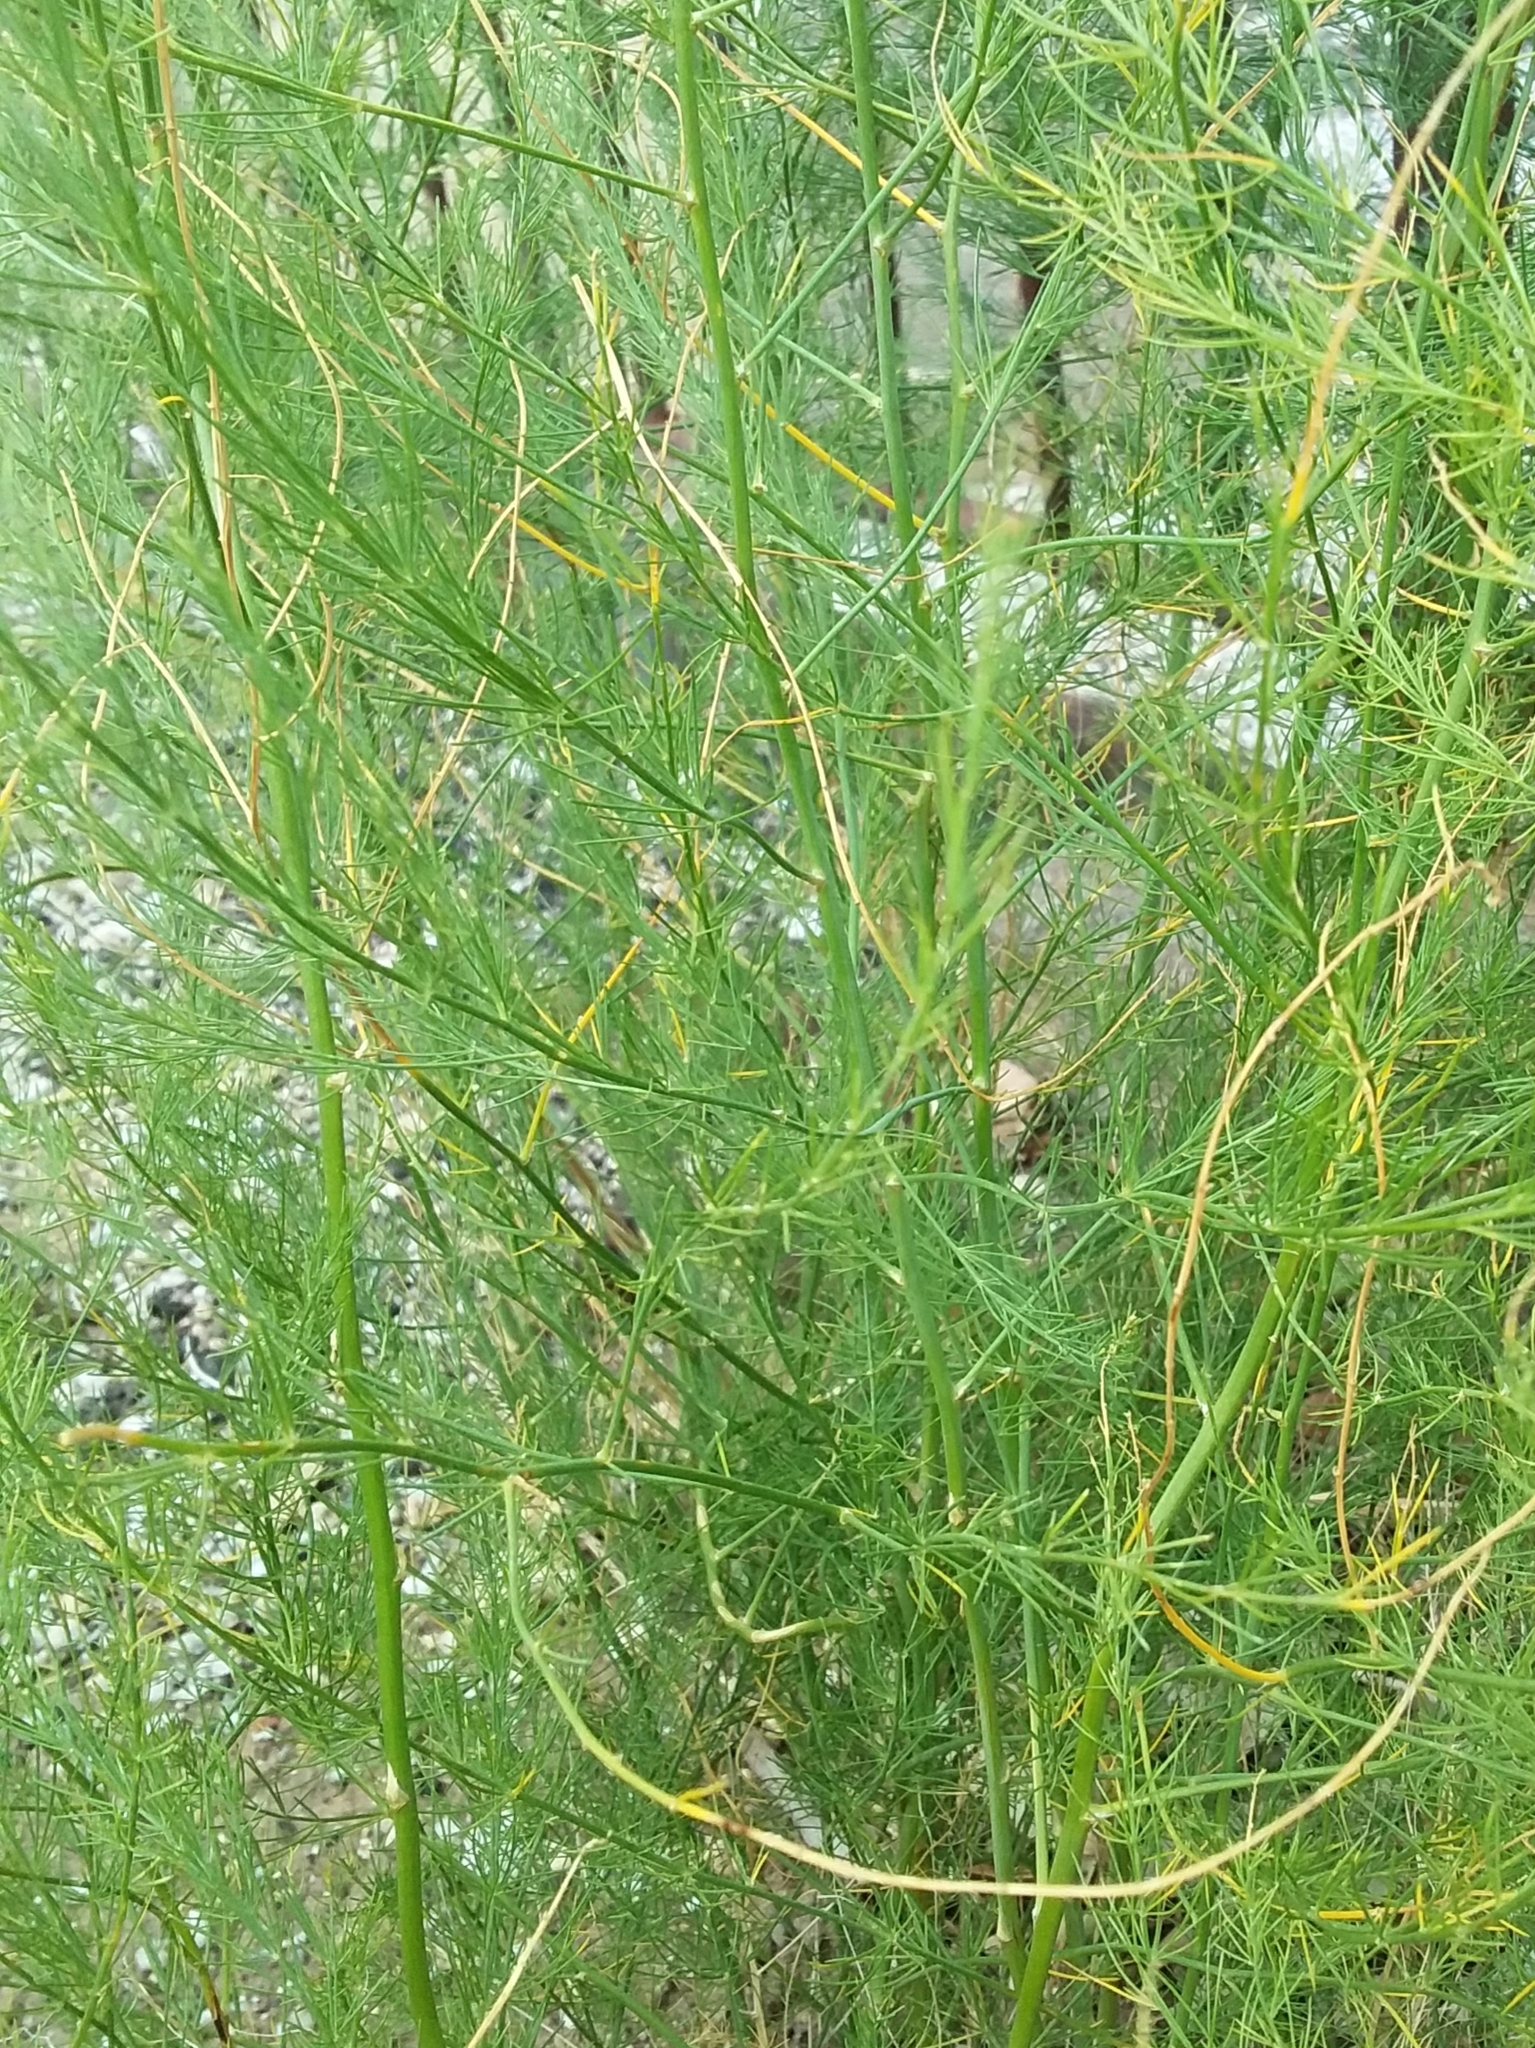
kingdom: Plantae
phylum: Tracheophyta
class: Liliopsida
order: Asparagales
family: Asparagaceae
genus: Asparagus
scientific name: Asparagus officinalis
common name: Garden asparagus
